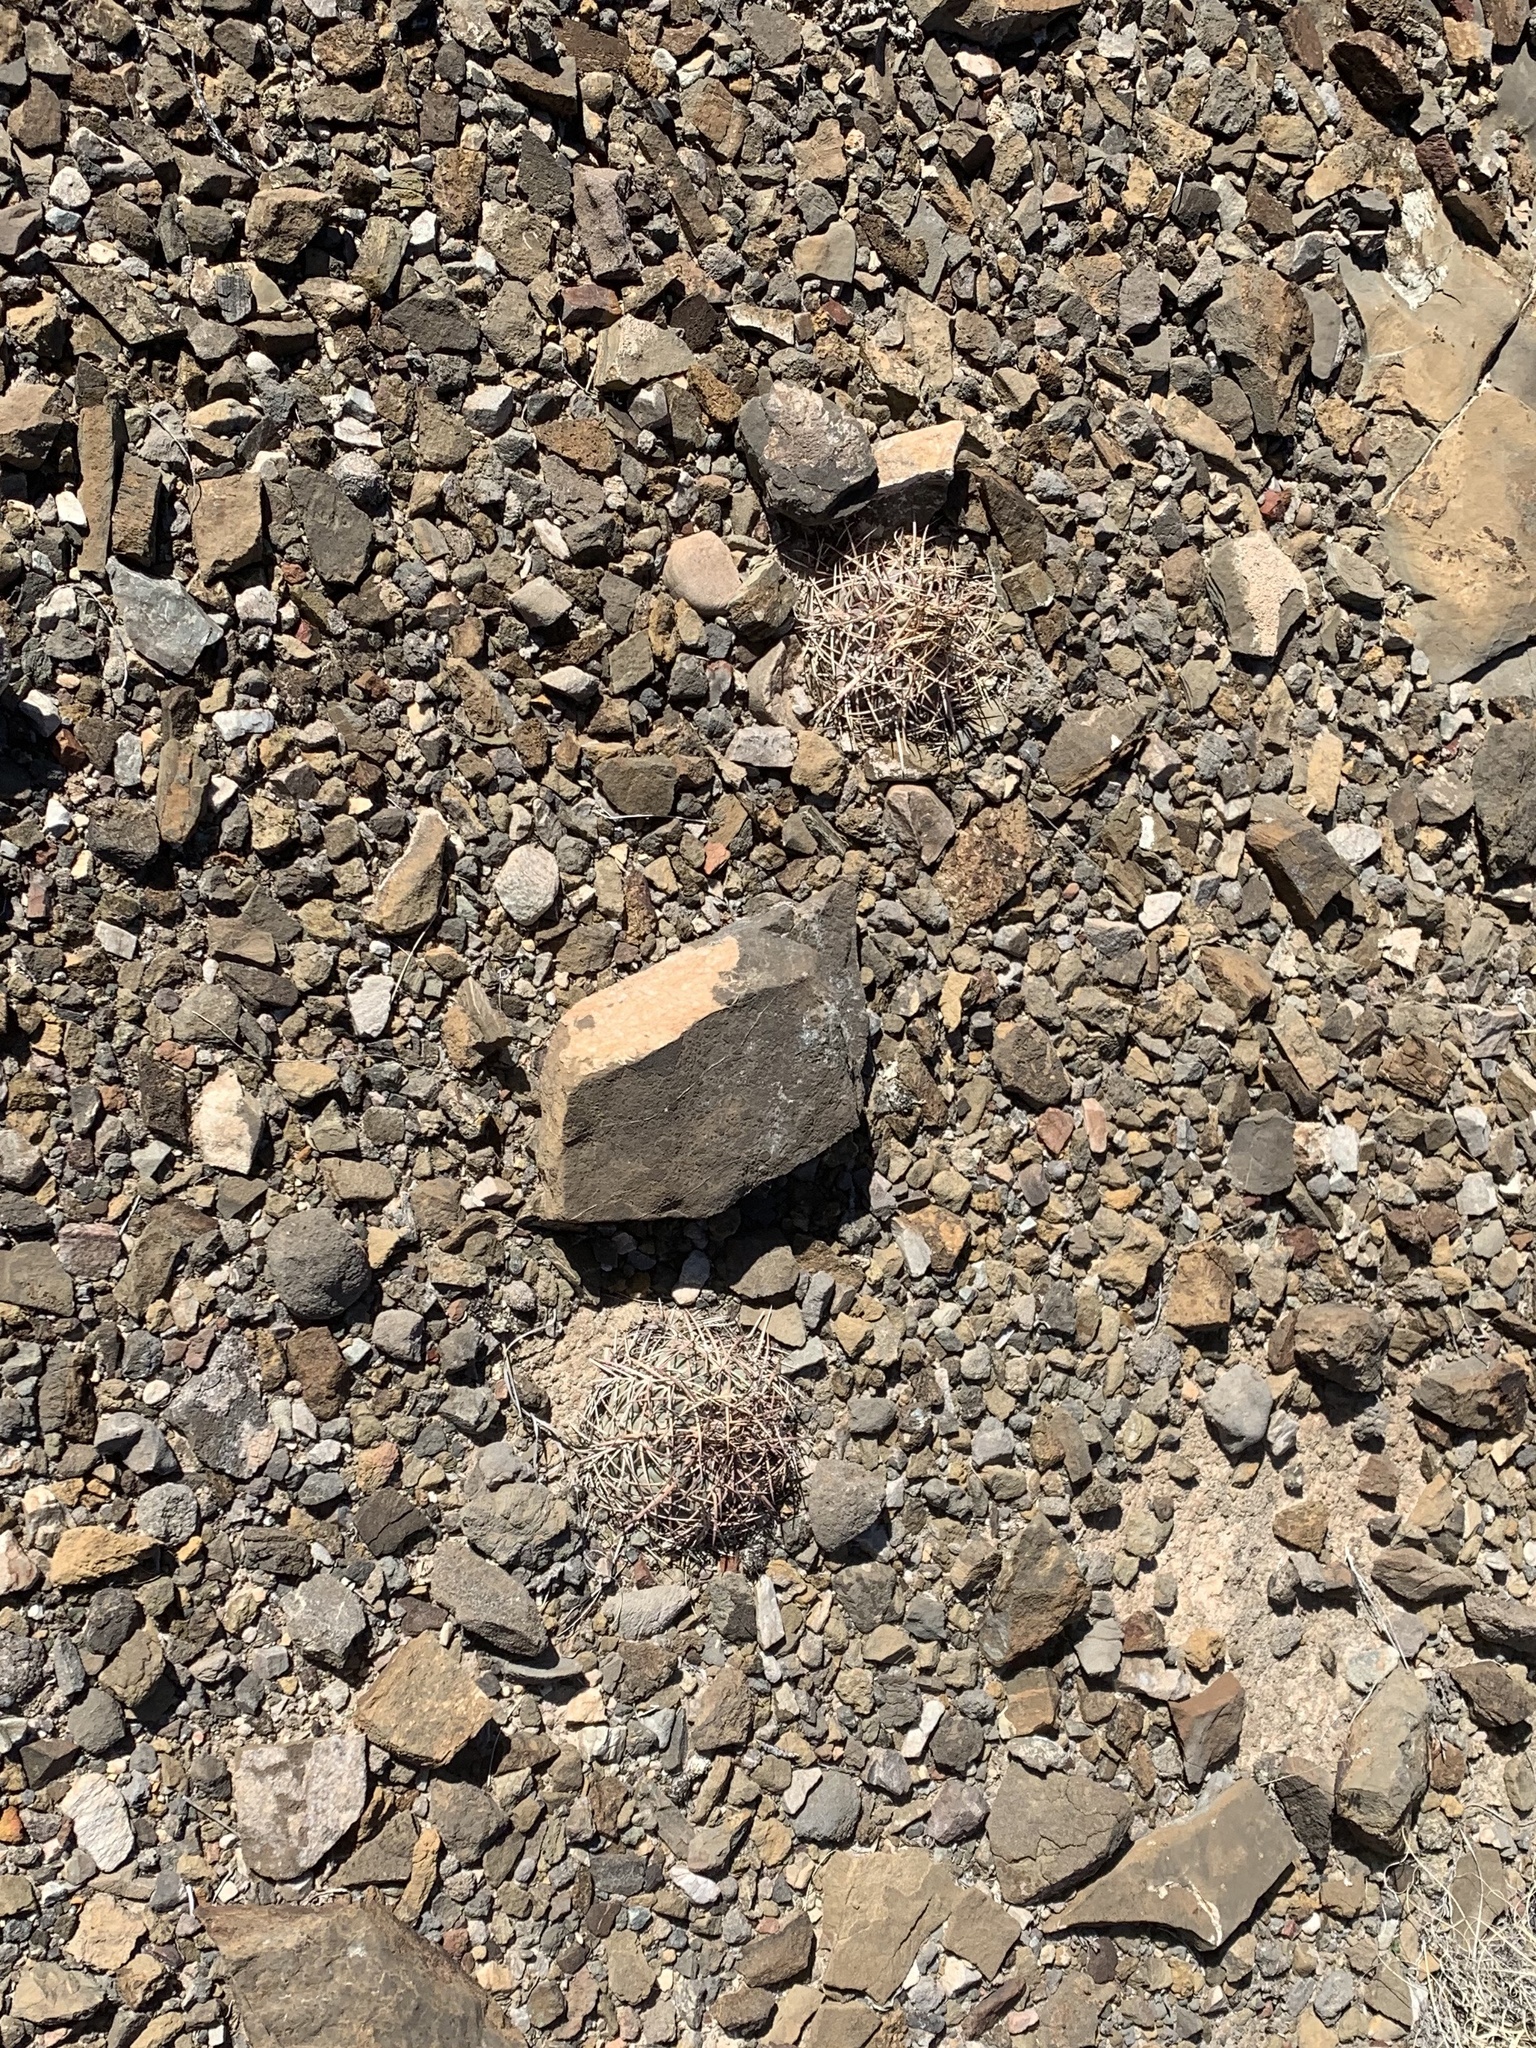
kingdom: Plantae
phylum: Tracheophyta
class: Magnoliopsida
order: Caryophyllales
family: Cactaceae
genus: Echinocactus
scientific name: Echinocactus horizonthalonius
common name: Devilshead
